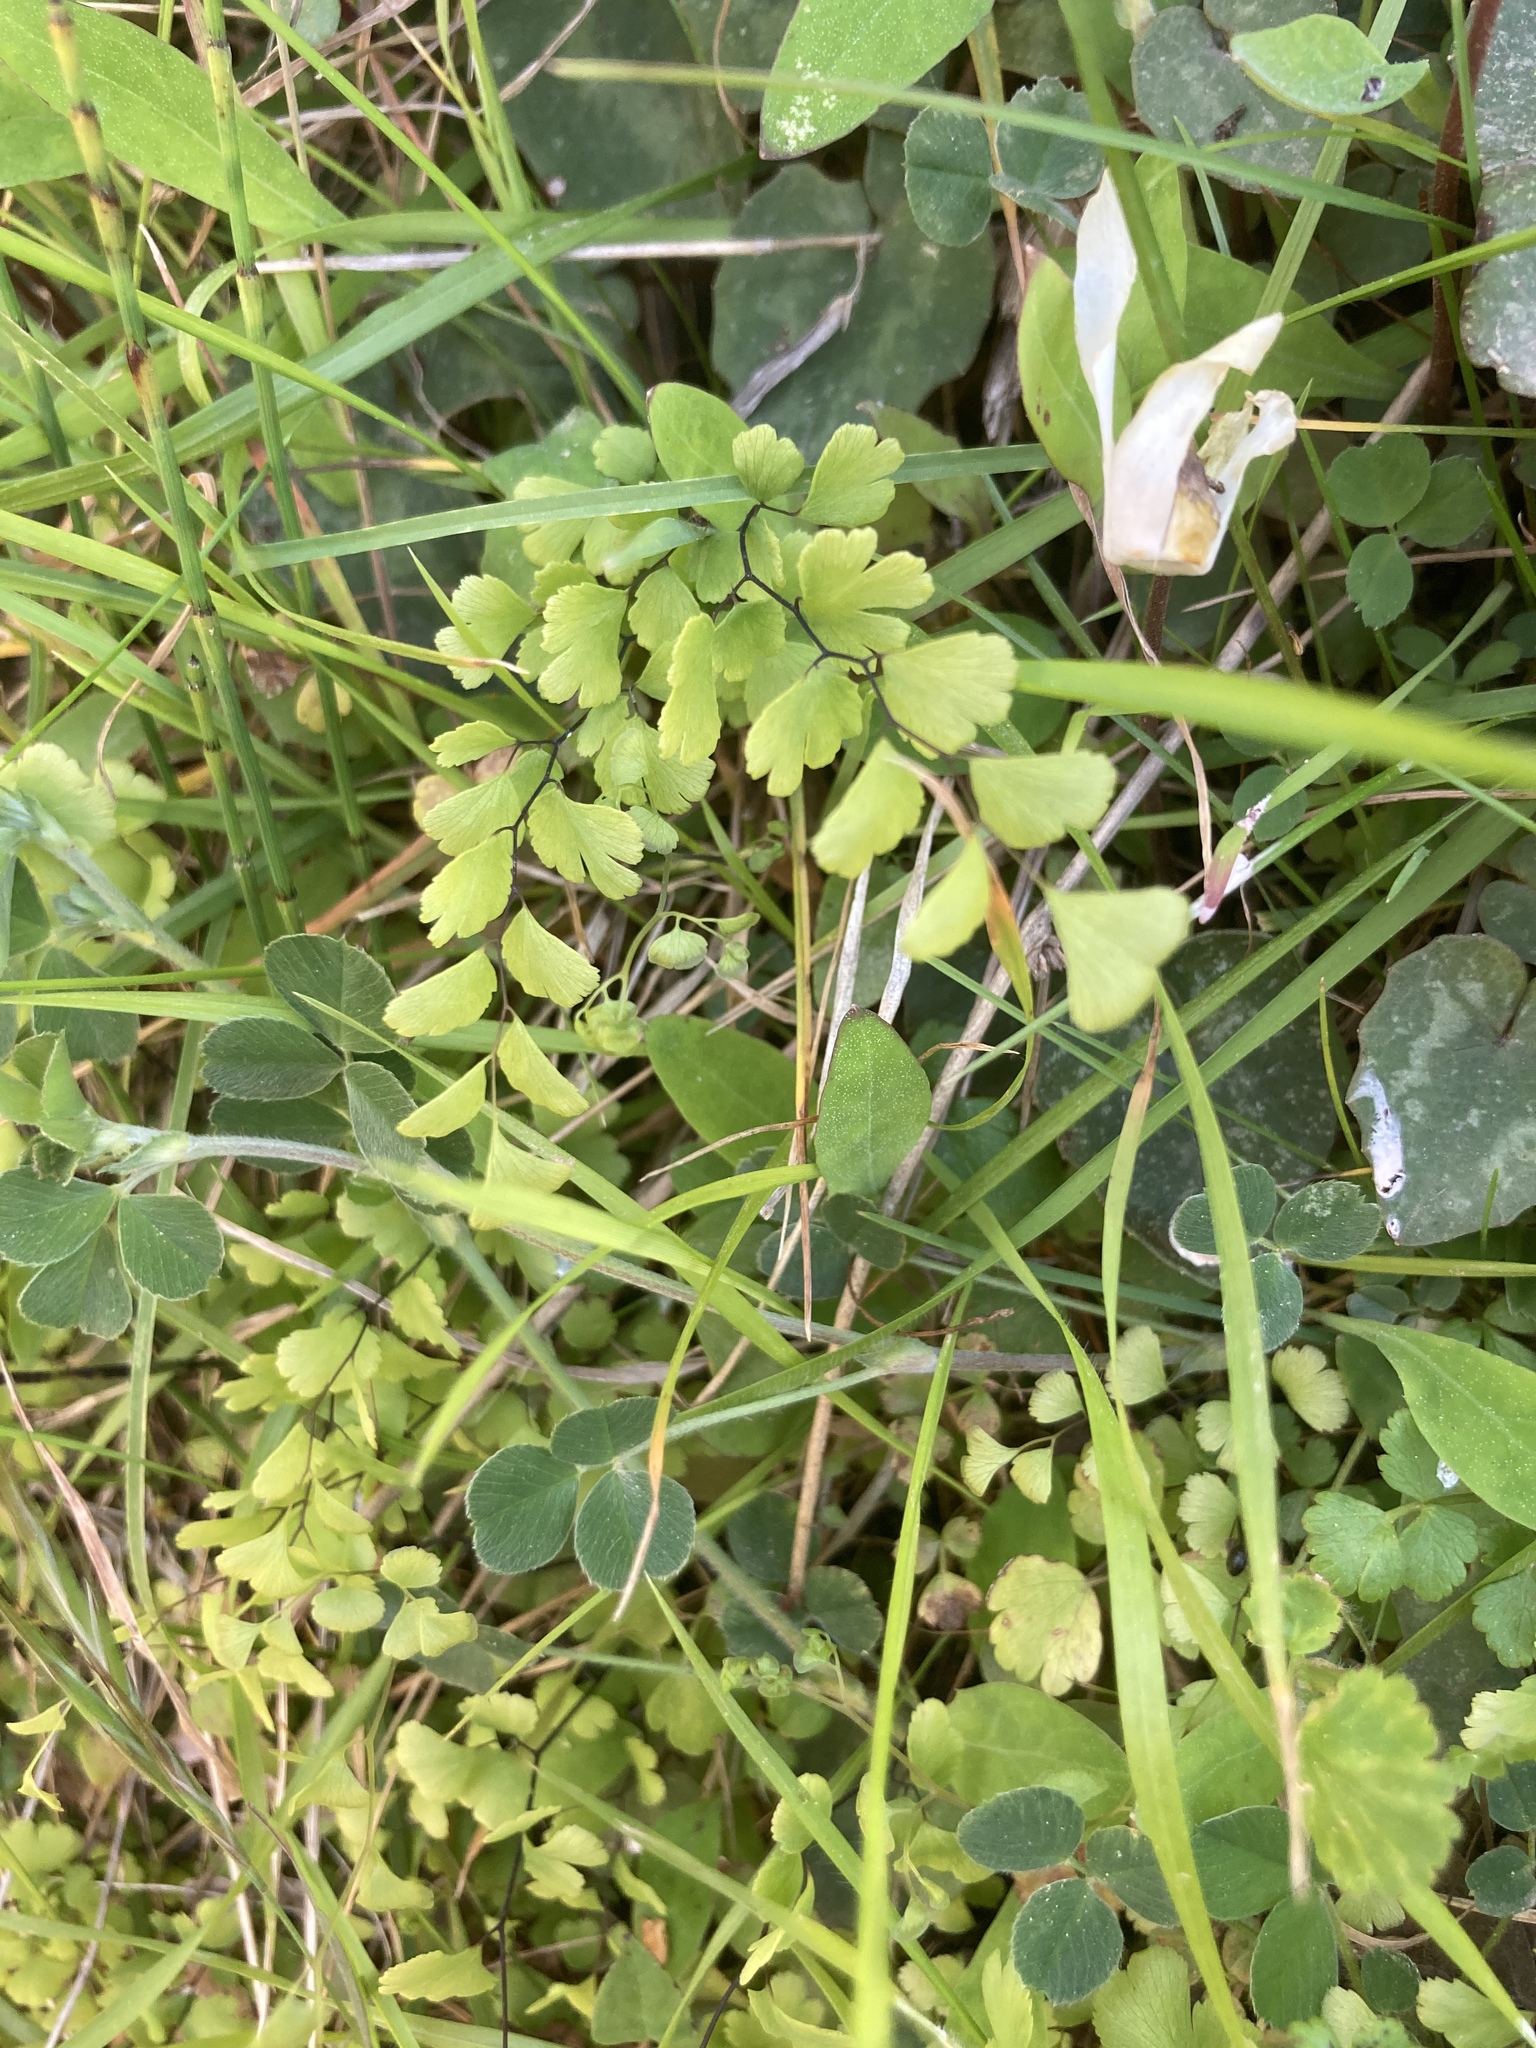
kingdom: Plantae
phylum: Tracheophyta
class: Polypodiopsida
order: Polypodiales
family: Pteridaceae
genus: Adiantum
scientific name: Adiantum capillus-veneris
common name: Maidenhair fern
